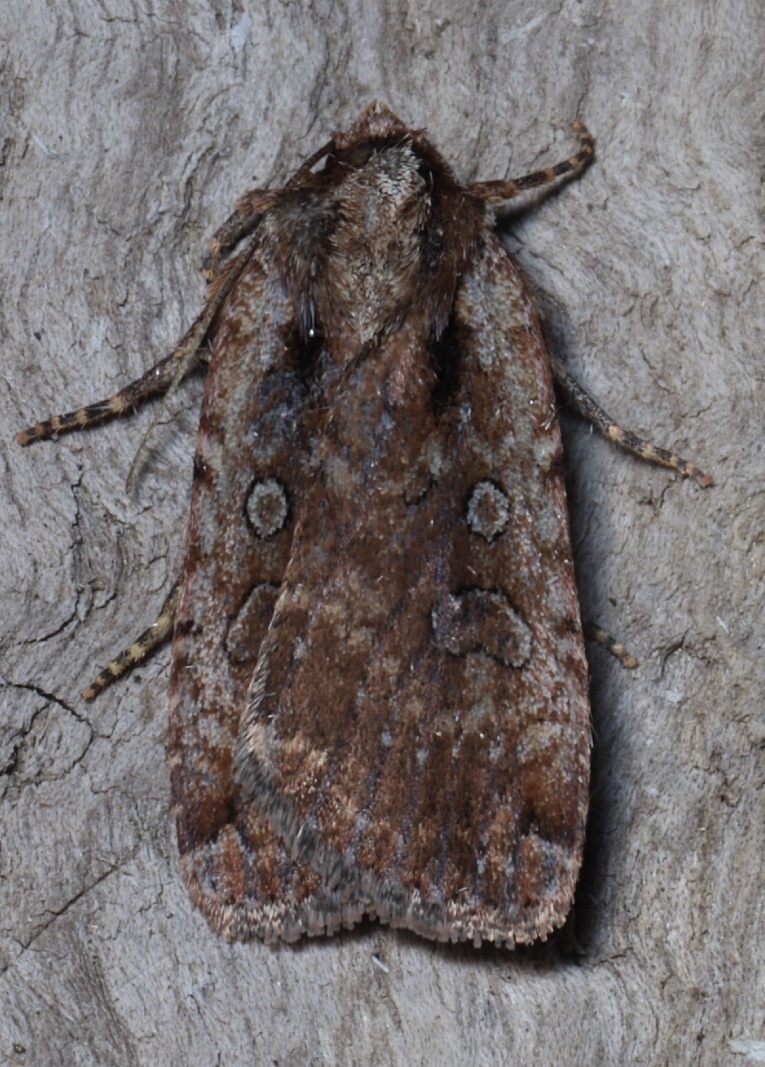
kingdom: Animalia
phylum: Arthropoda
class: Insecta
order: Lepidoptera
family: Noctuidae
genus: Eueretagrotis
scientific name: Eueretagrotis attentus
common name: Attentive dart
